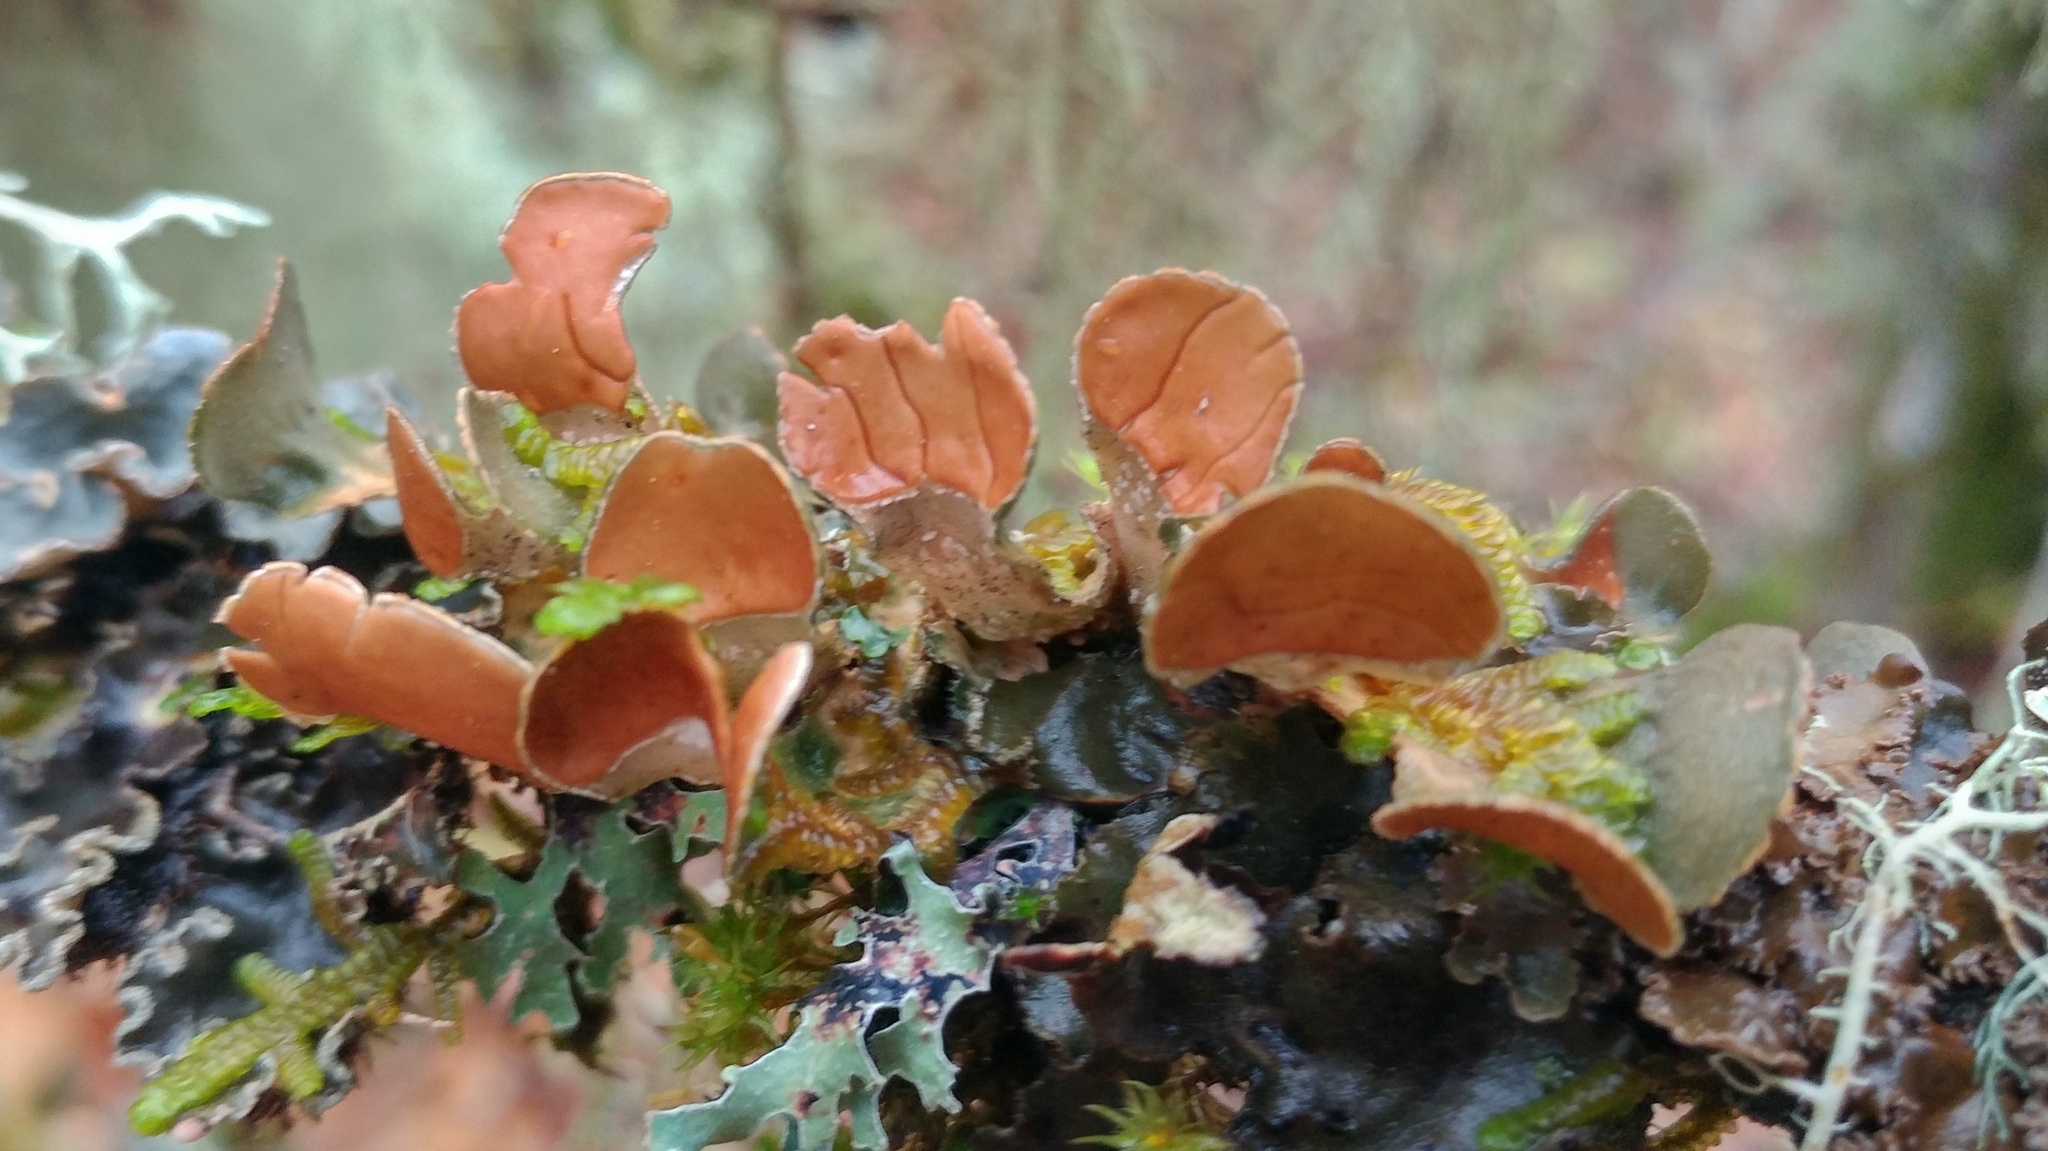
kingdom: Fungi
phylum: Ascomycota
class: Lecanoromycetes
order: Peltigerales
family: Nephromataceae
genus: Nephroma
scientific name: Nephroma resupinatum
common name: Pimpled kidney lichen
